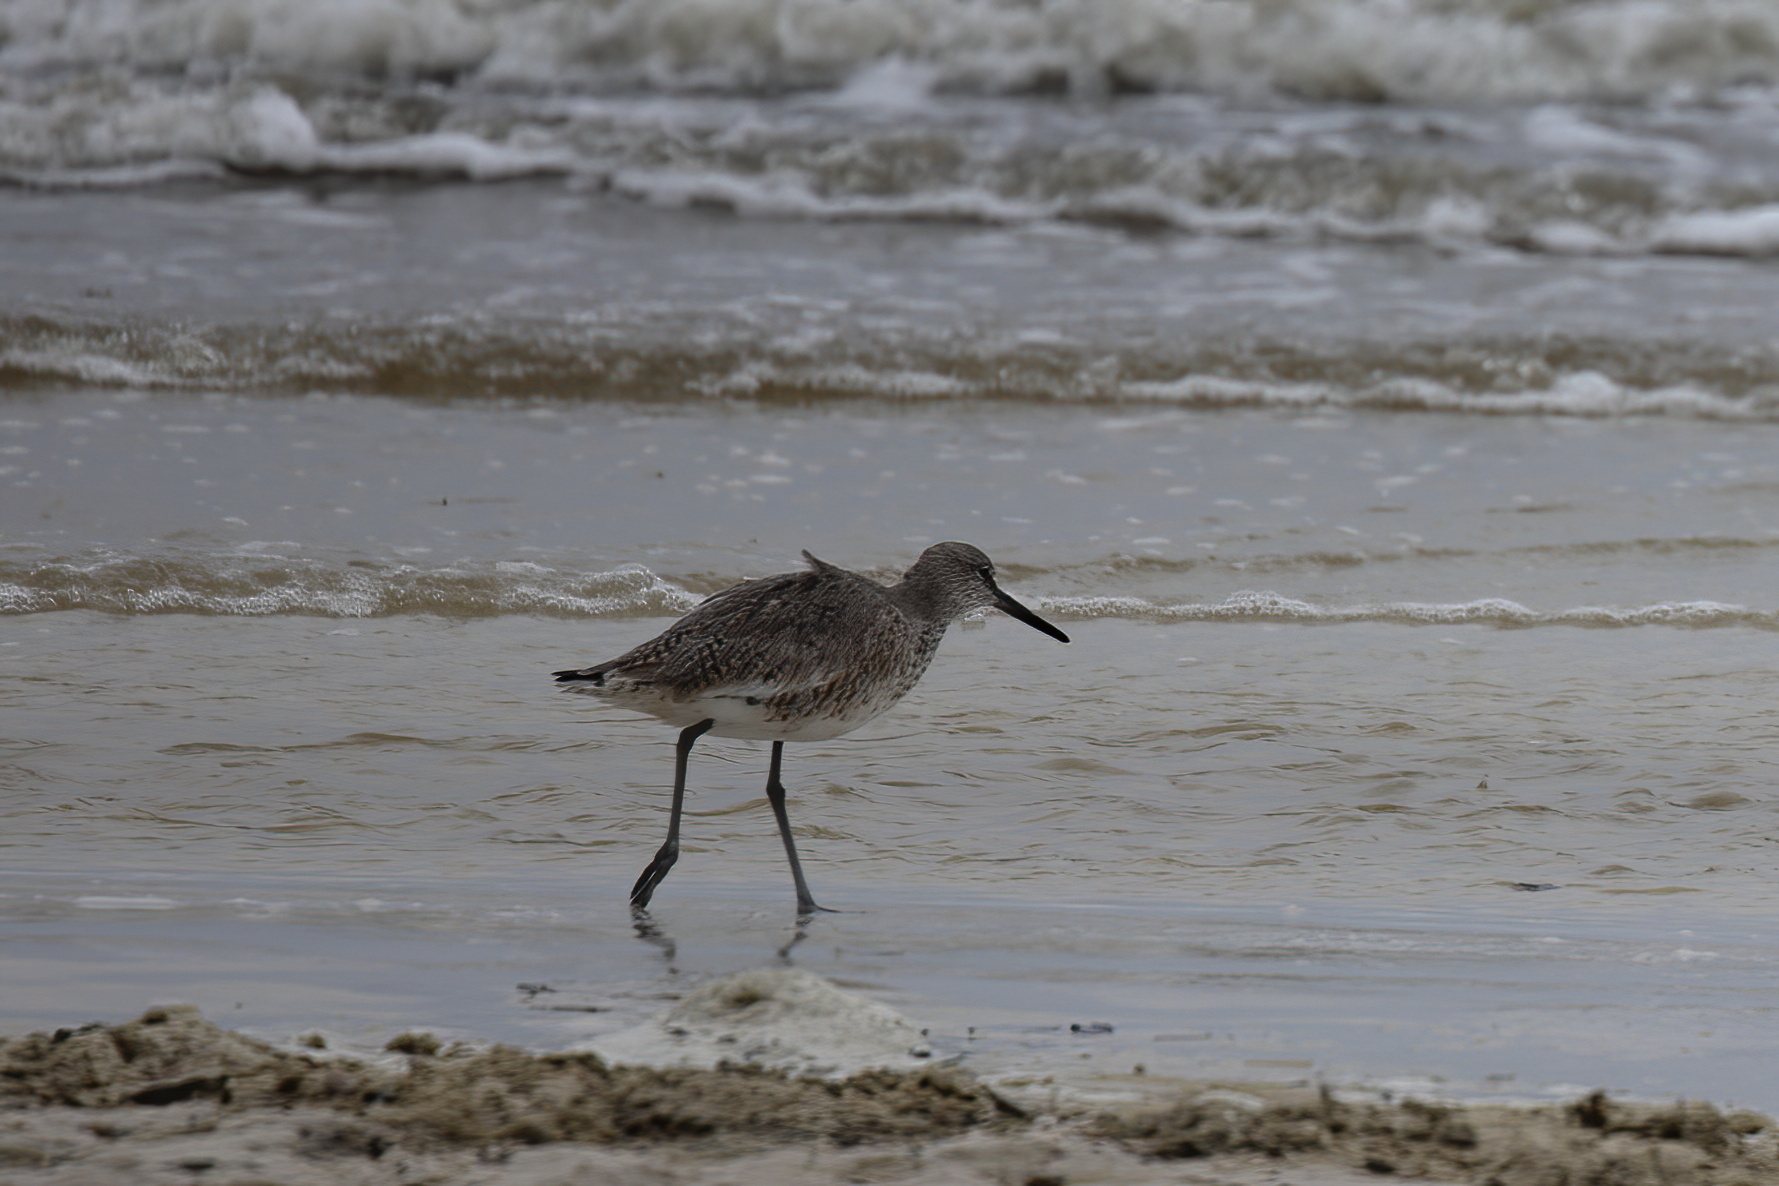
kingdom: Animalia
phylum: Chordata
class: Aves
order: Charadriiformes
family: Scolopacidae
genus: Tringa
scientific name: Tringa semipalmata
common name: Willet
